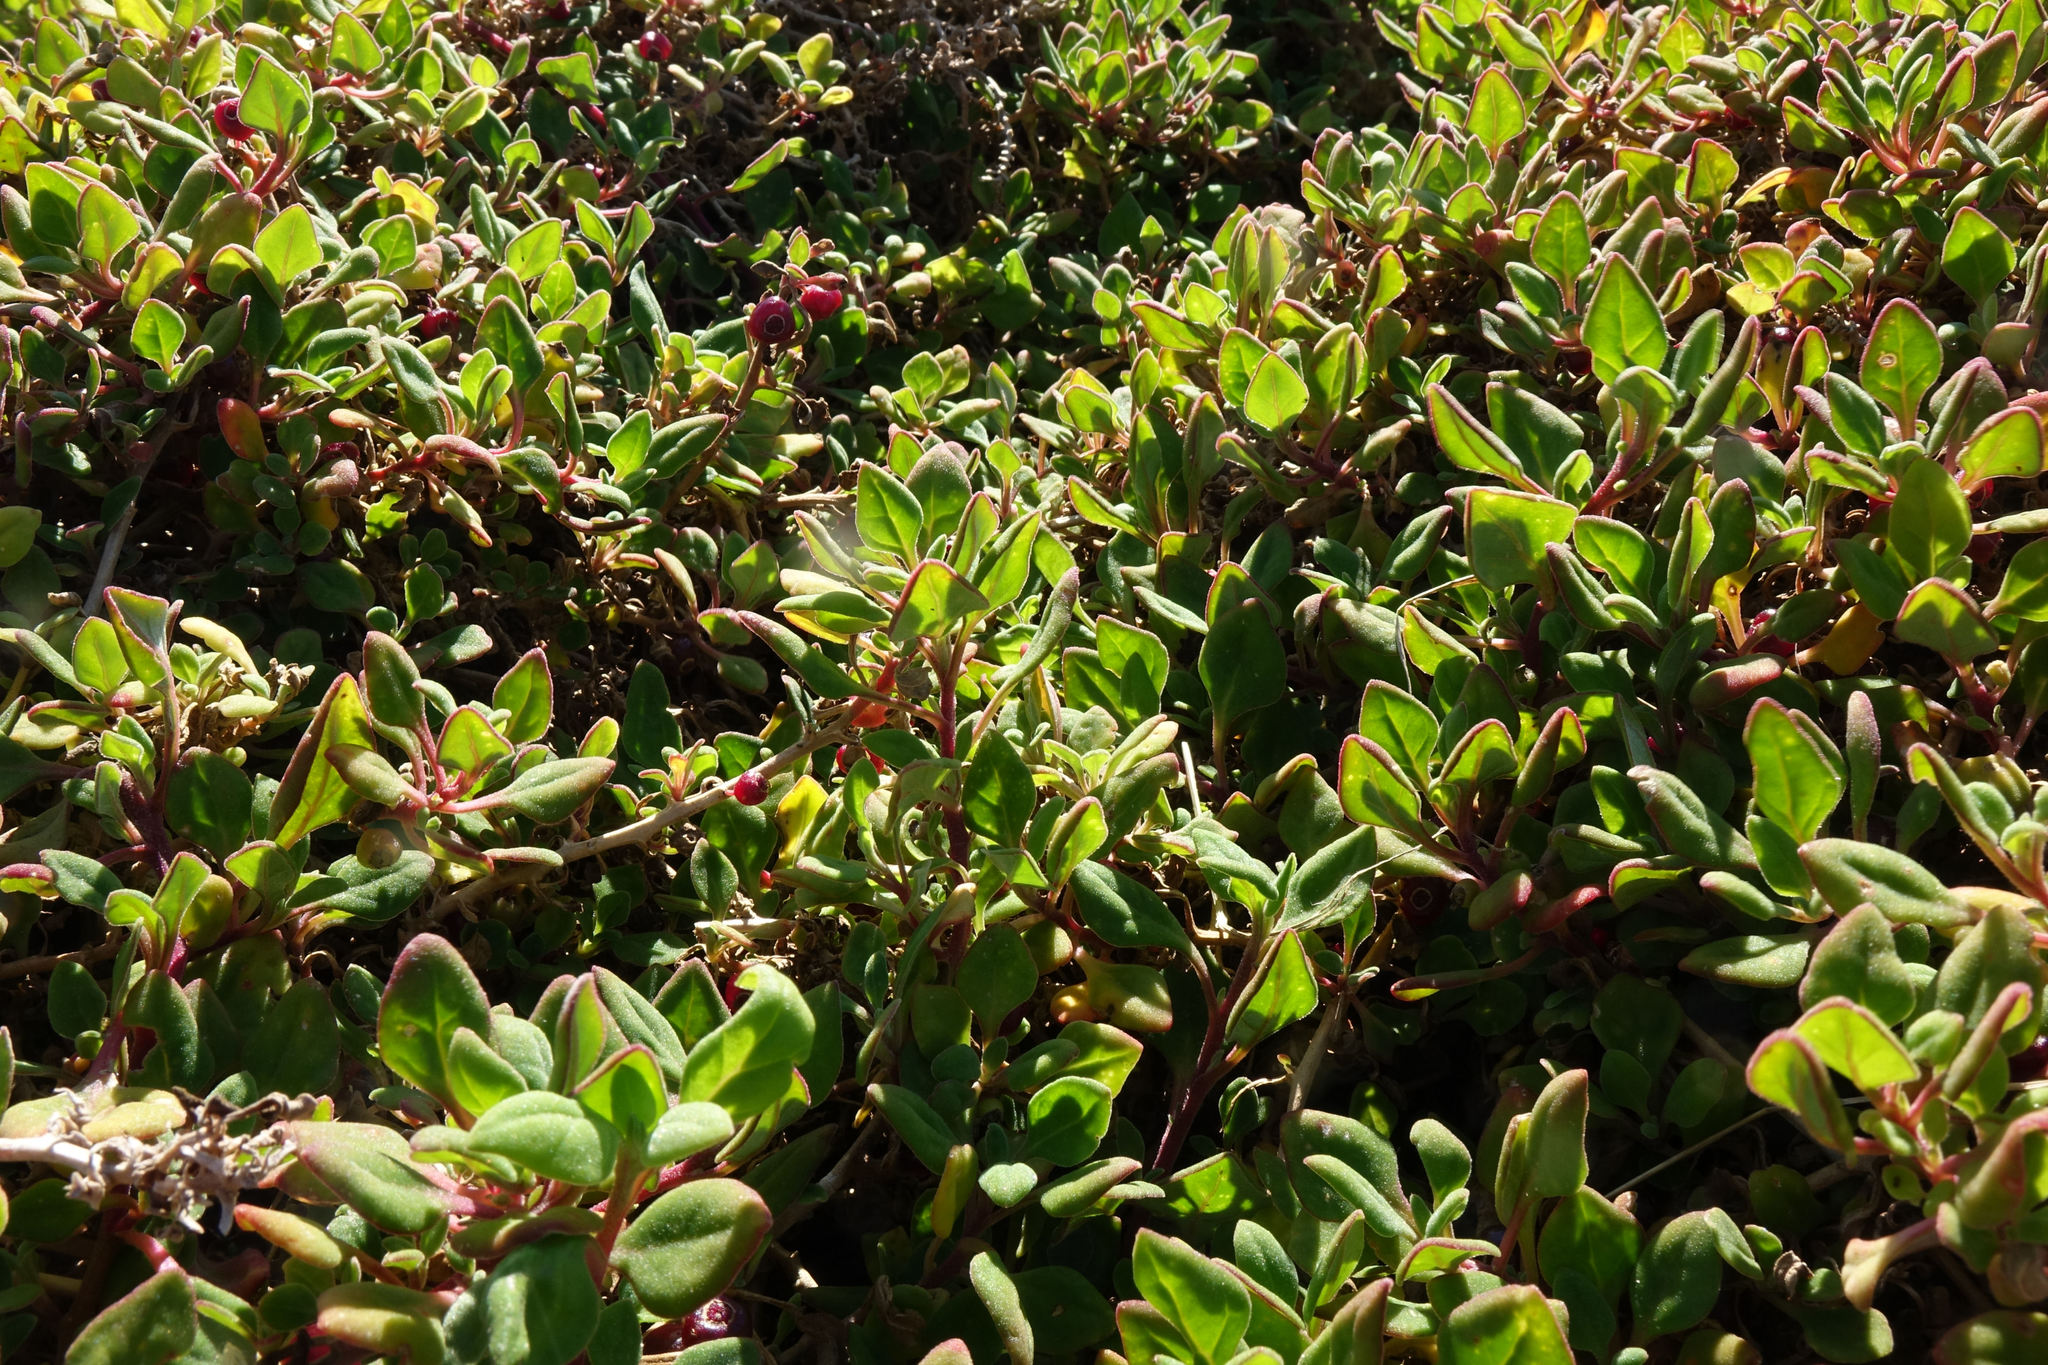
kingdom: Plantae
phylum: Tracheophyta
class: Magnoliopsida
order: Caryophyllales
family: Aizoaceae
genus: Tetragonia
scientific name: Tetragonia implexicoma
